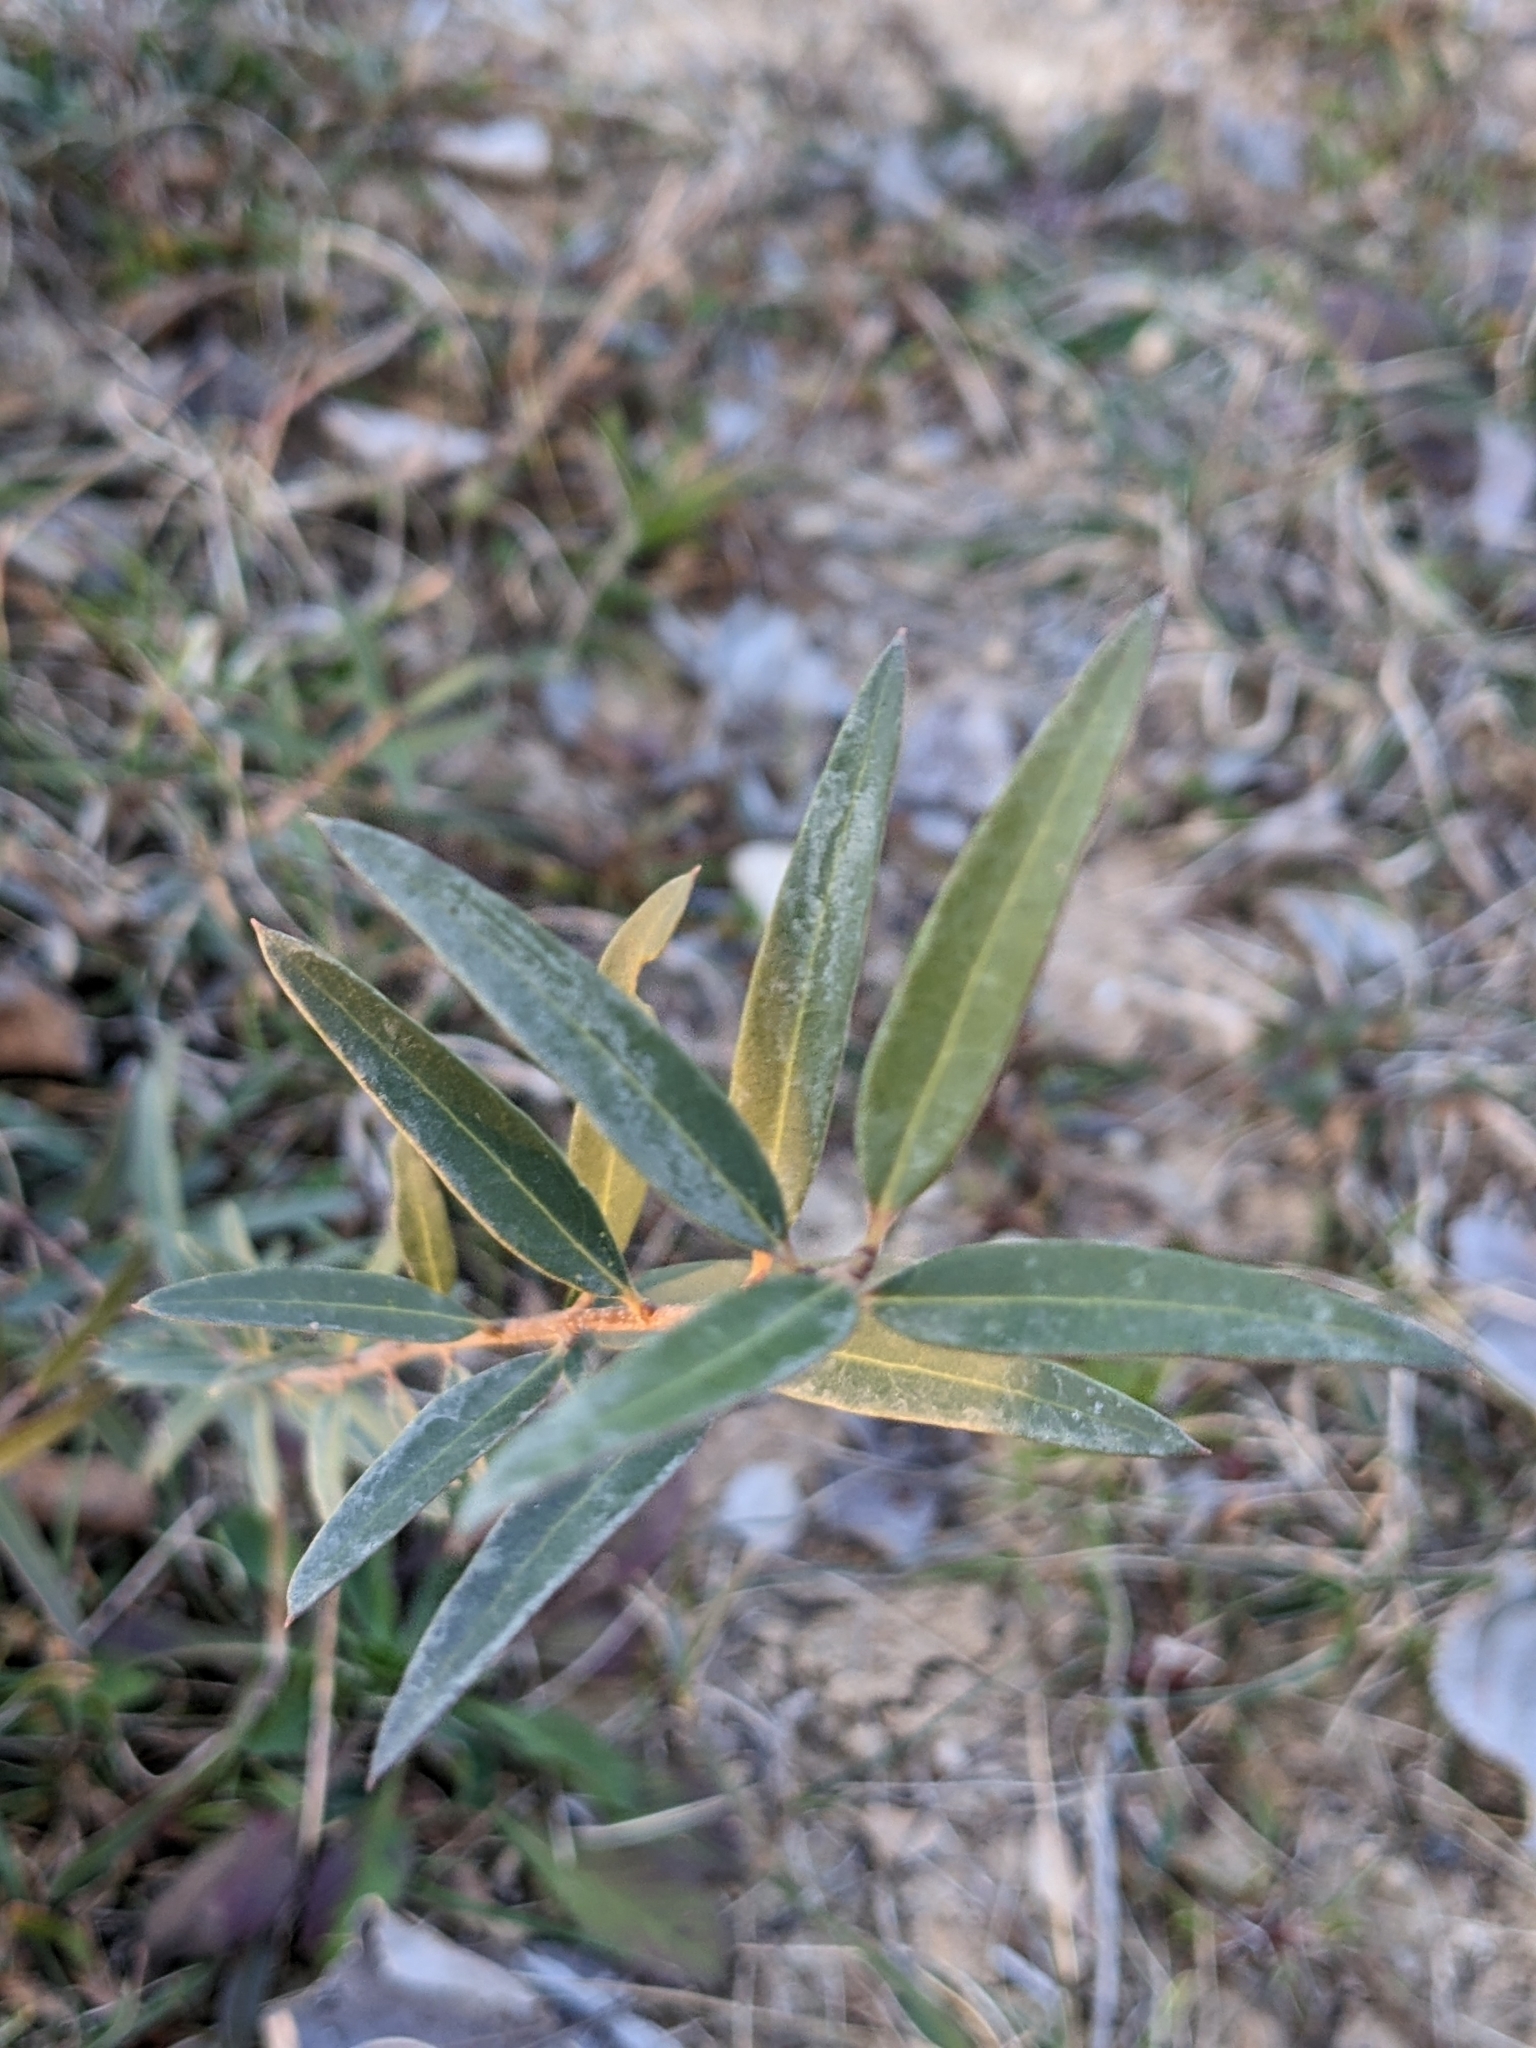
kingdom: Plantae
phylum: Tracheophyta
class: Magnoliopsida
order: Lamiales
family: Oleaceae
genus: Phillyrea
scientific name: Phillyrea angustifolia
